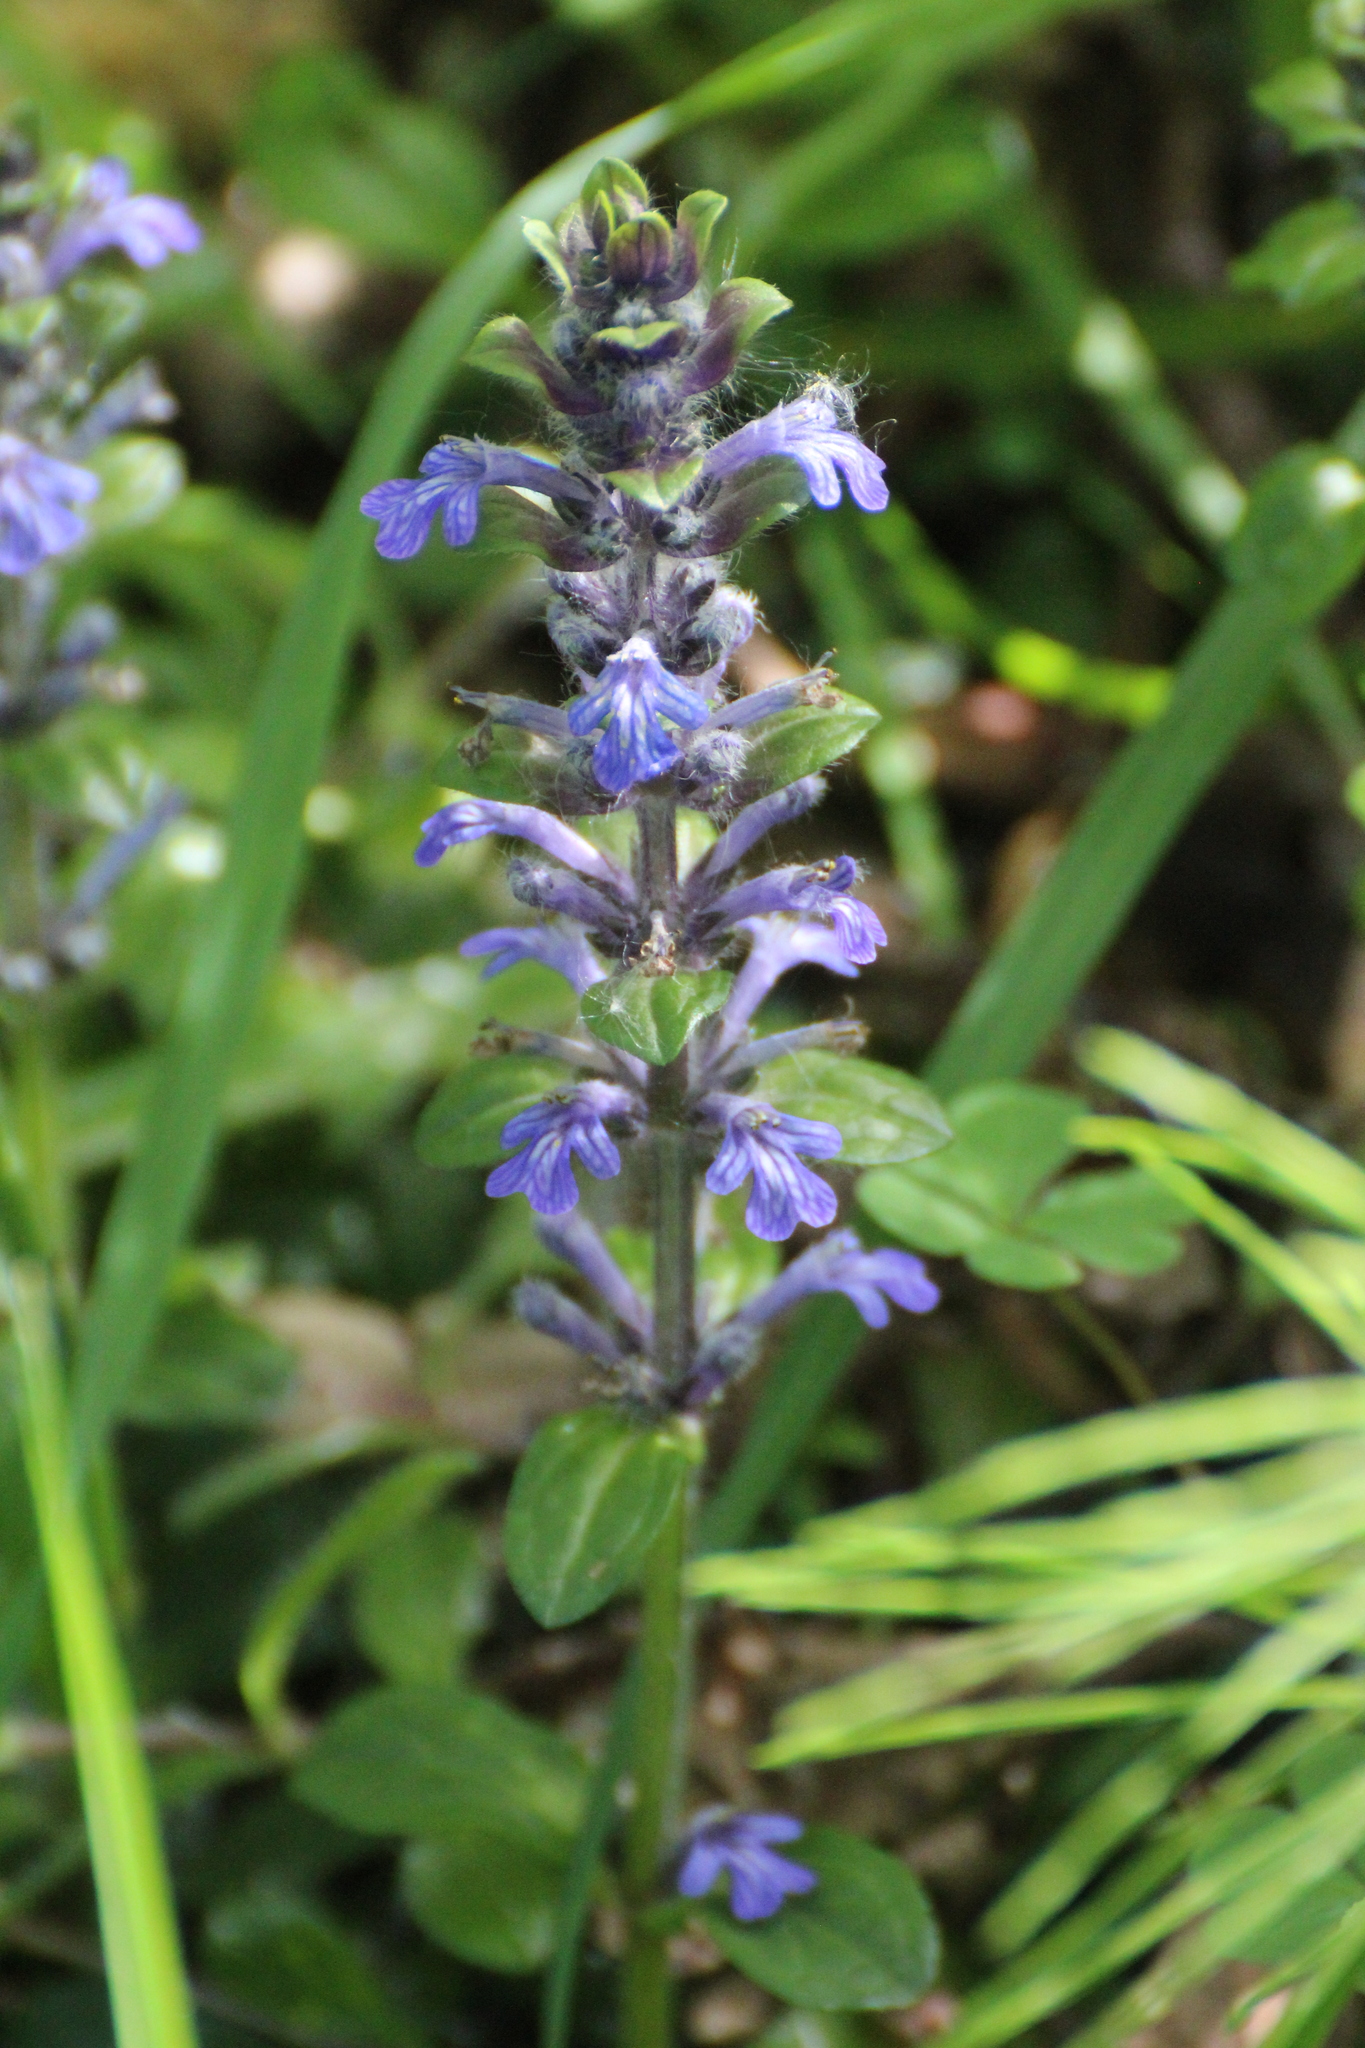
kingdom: Plantae
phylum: Tracheophyta
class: Magnoliopsida
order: Lamiales
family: Lamiaceae
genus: Ajuga
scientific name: Ajuga reptans
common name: Bugle
